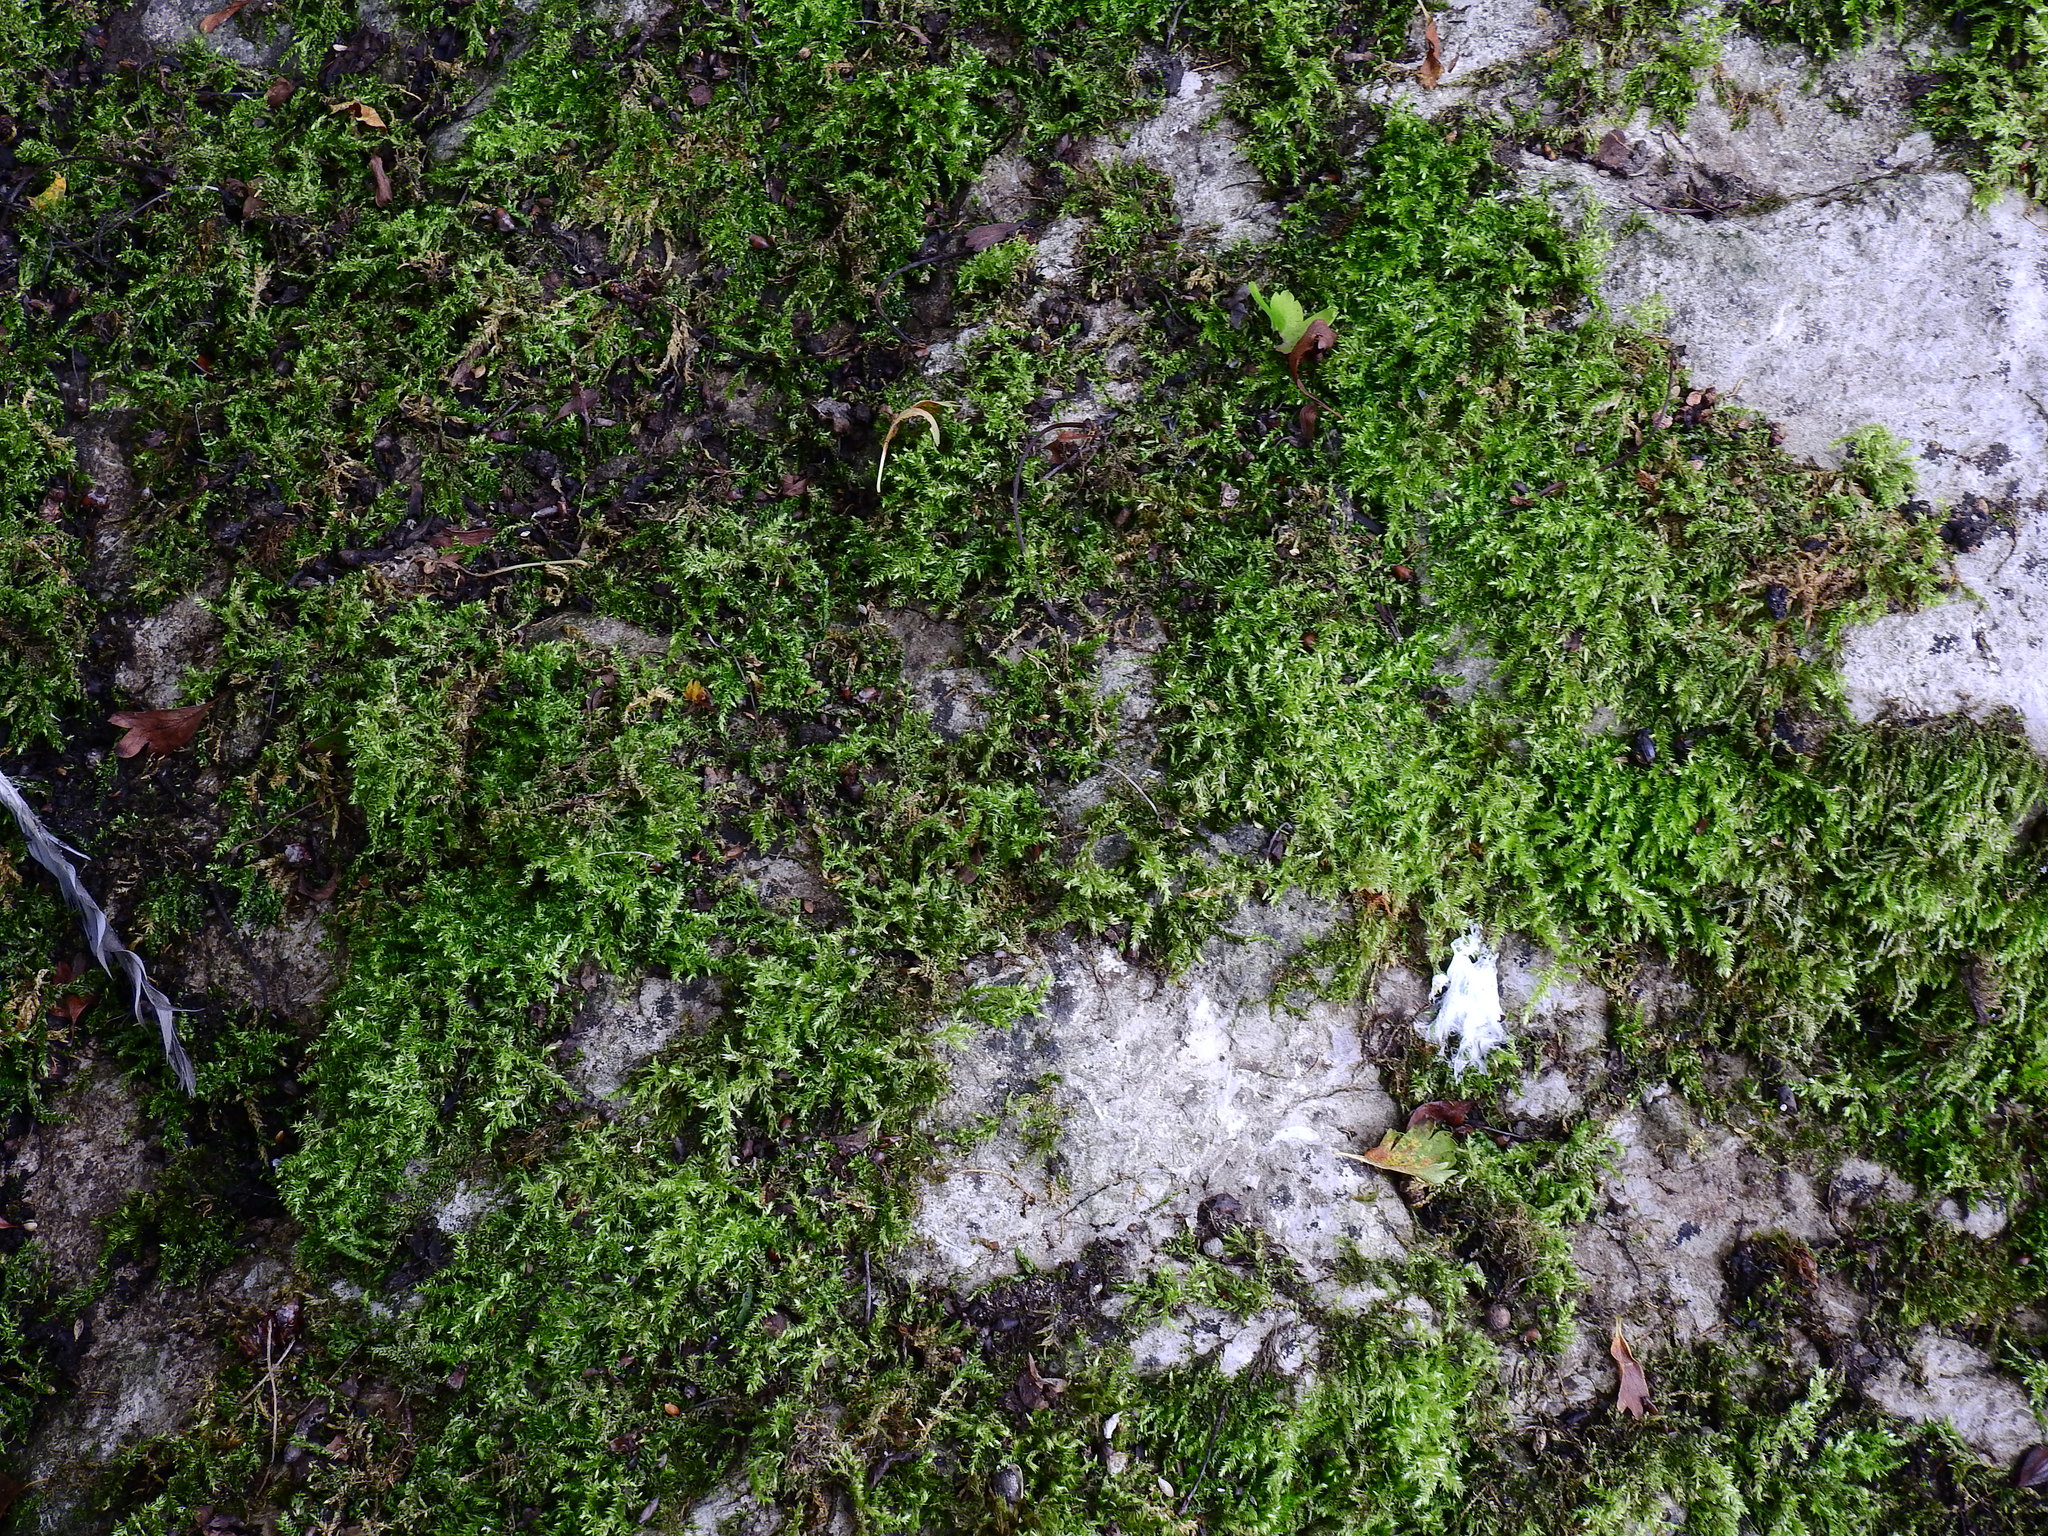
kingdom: Plantae
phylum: Bryophyta
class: Bryopsida
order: Hypnales
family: Brachytheciaceae
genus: Brachythecium
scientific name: Brachythecium rutabulum
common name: Rough-stalked feather-moss
